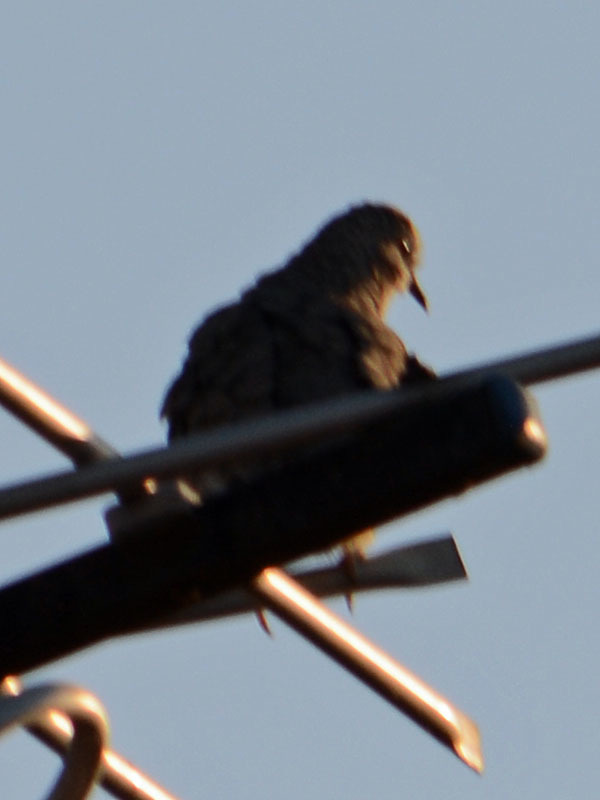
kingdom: Animalia
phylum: Chordata
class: Aves
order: Columbiformes
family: Columbidae
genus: Columbina
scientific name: Columbina inca
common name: Inca dove
